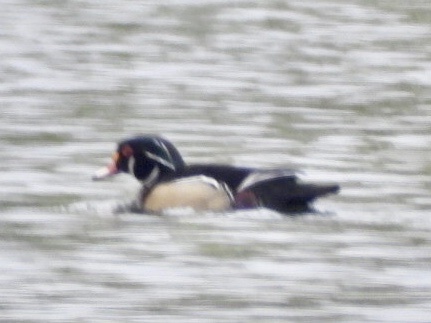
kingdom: Animalia
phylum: Chordata
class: Aves
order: Anseriformes
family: Anatidae
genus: Aix
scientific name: Aix sponsa
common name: Wood duck
